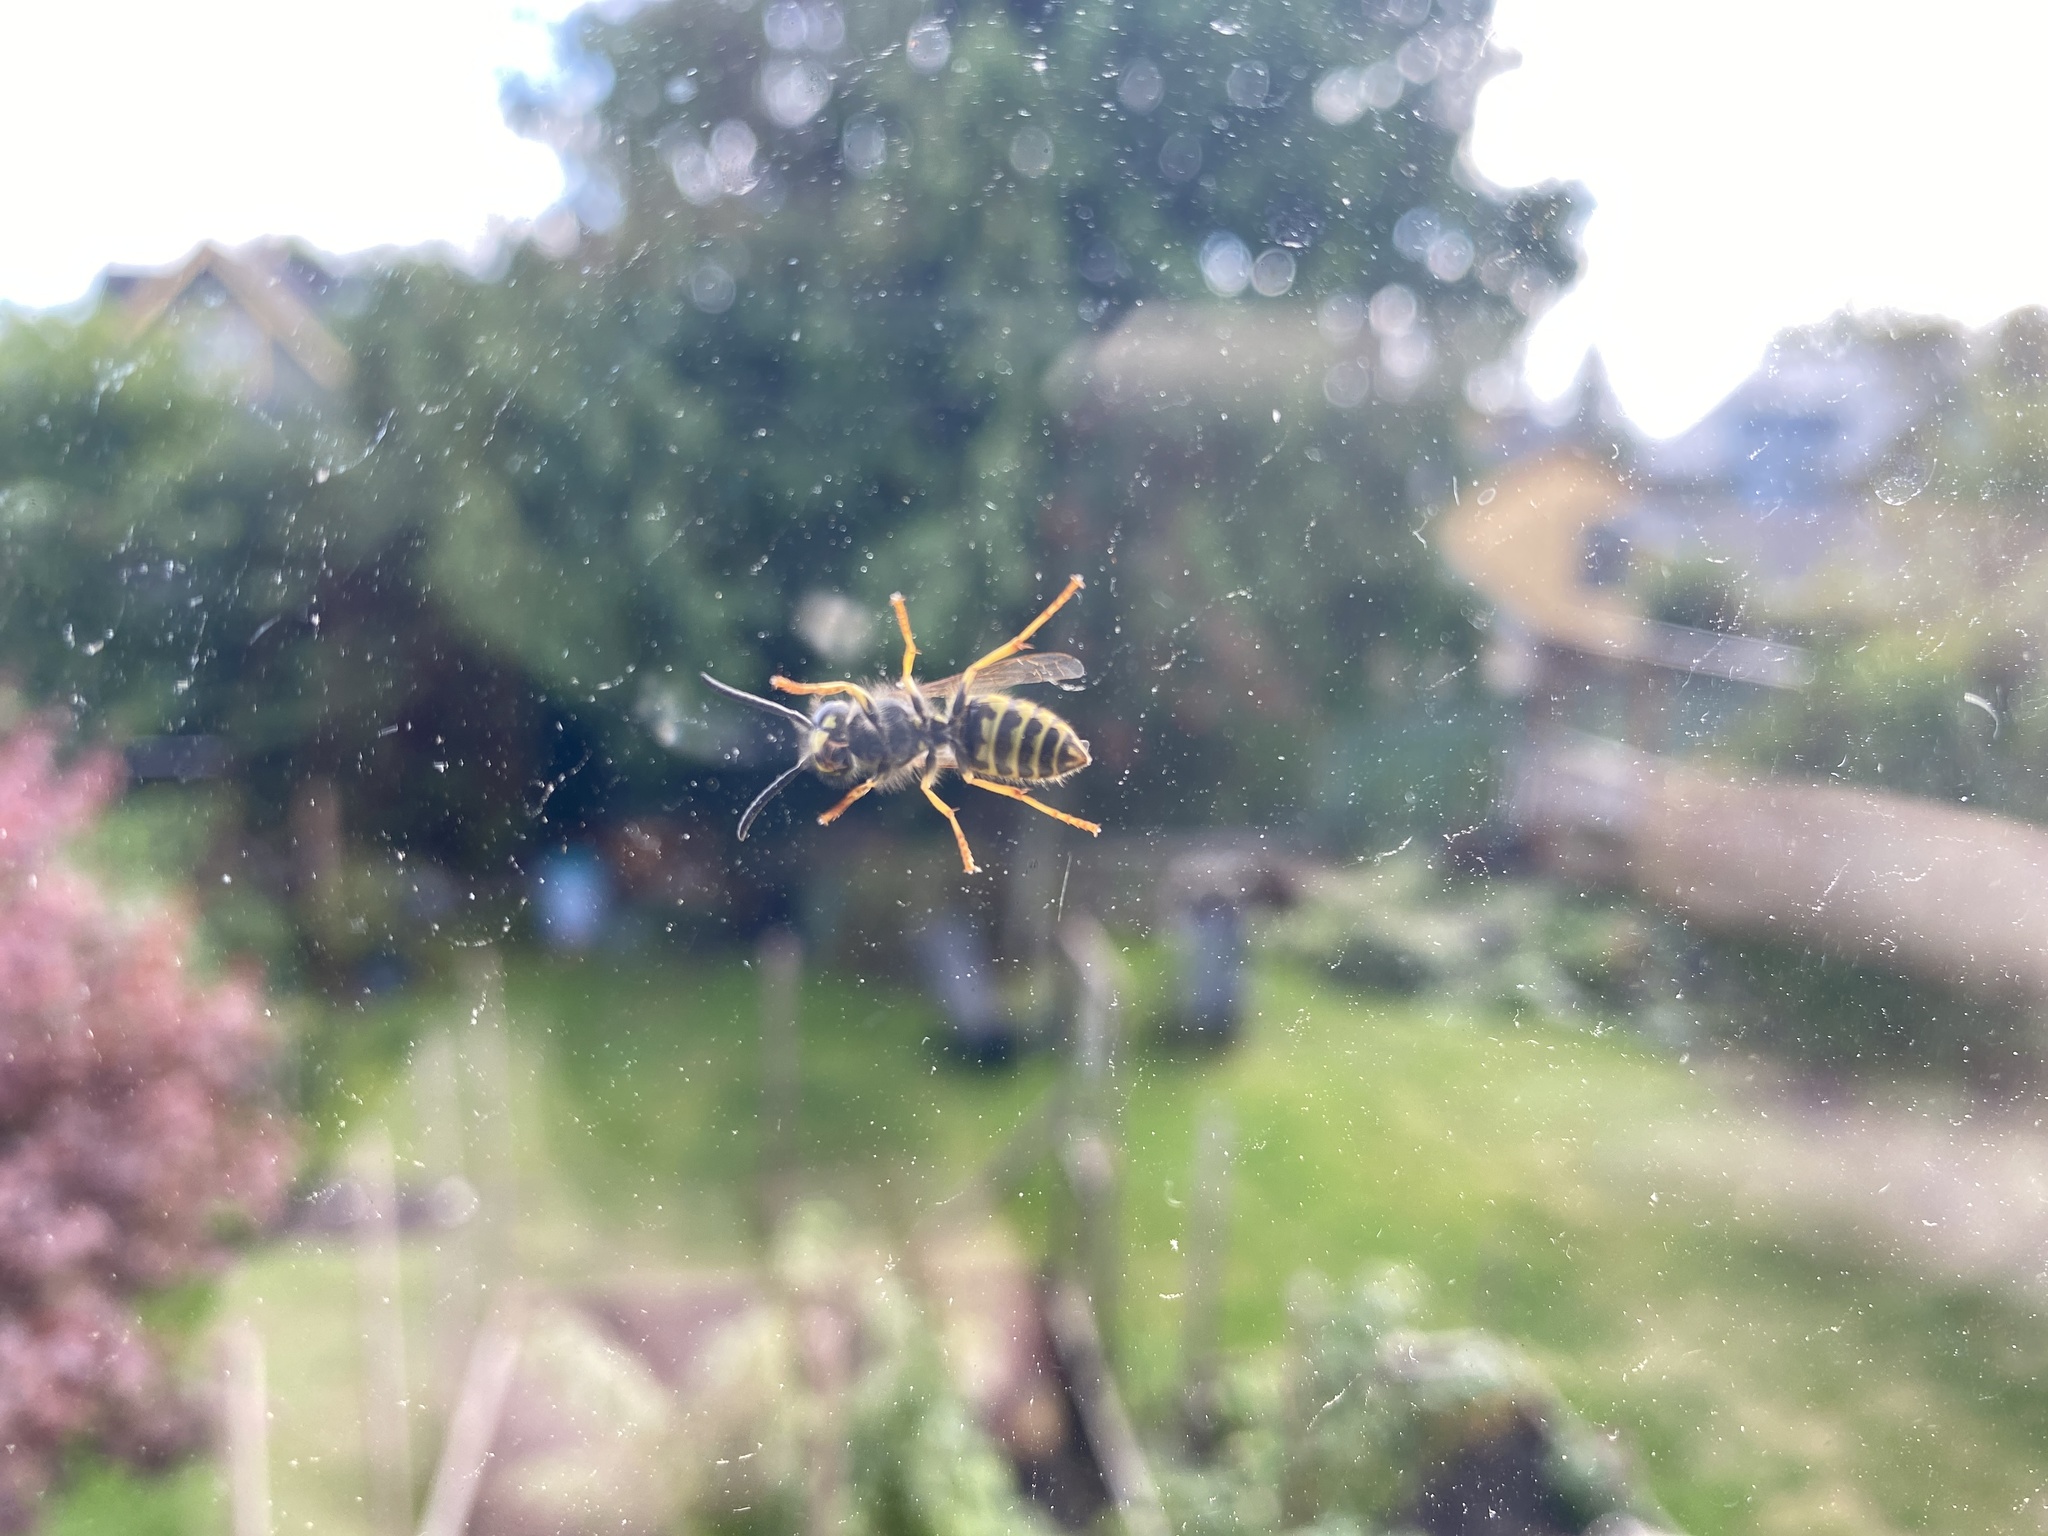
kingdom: Animalia
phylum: Arthropoda
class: Insecta
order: Hymenoptera
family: Vespidae
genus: Vespula
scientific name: Vespula
